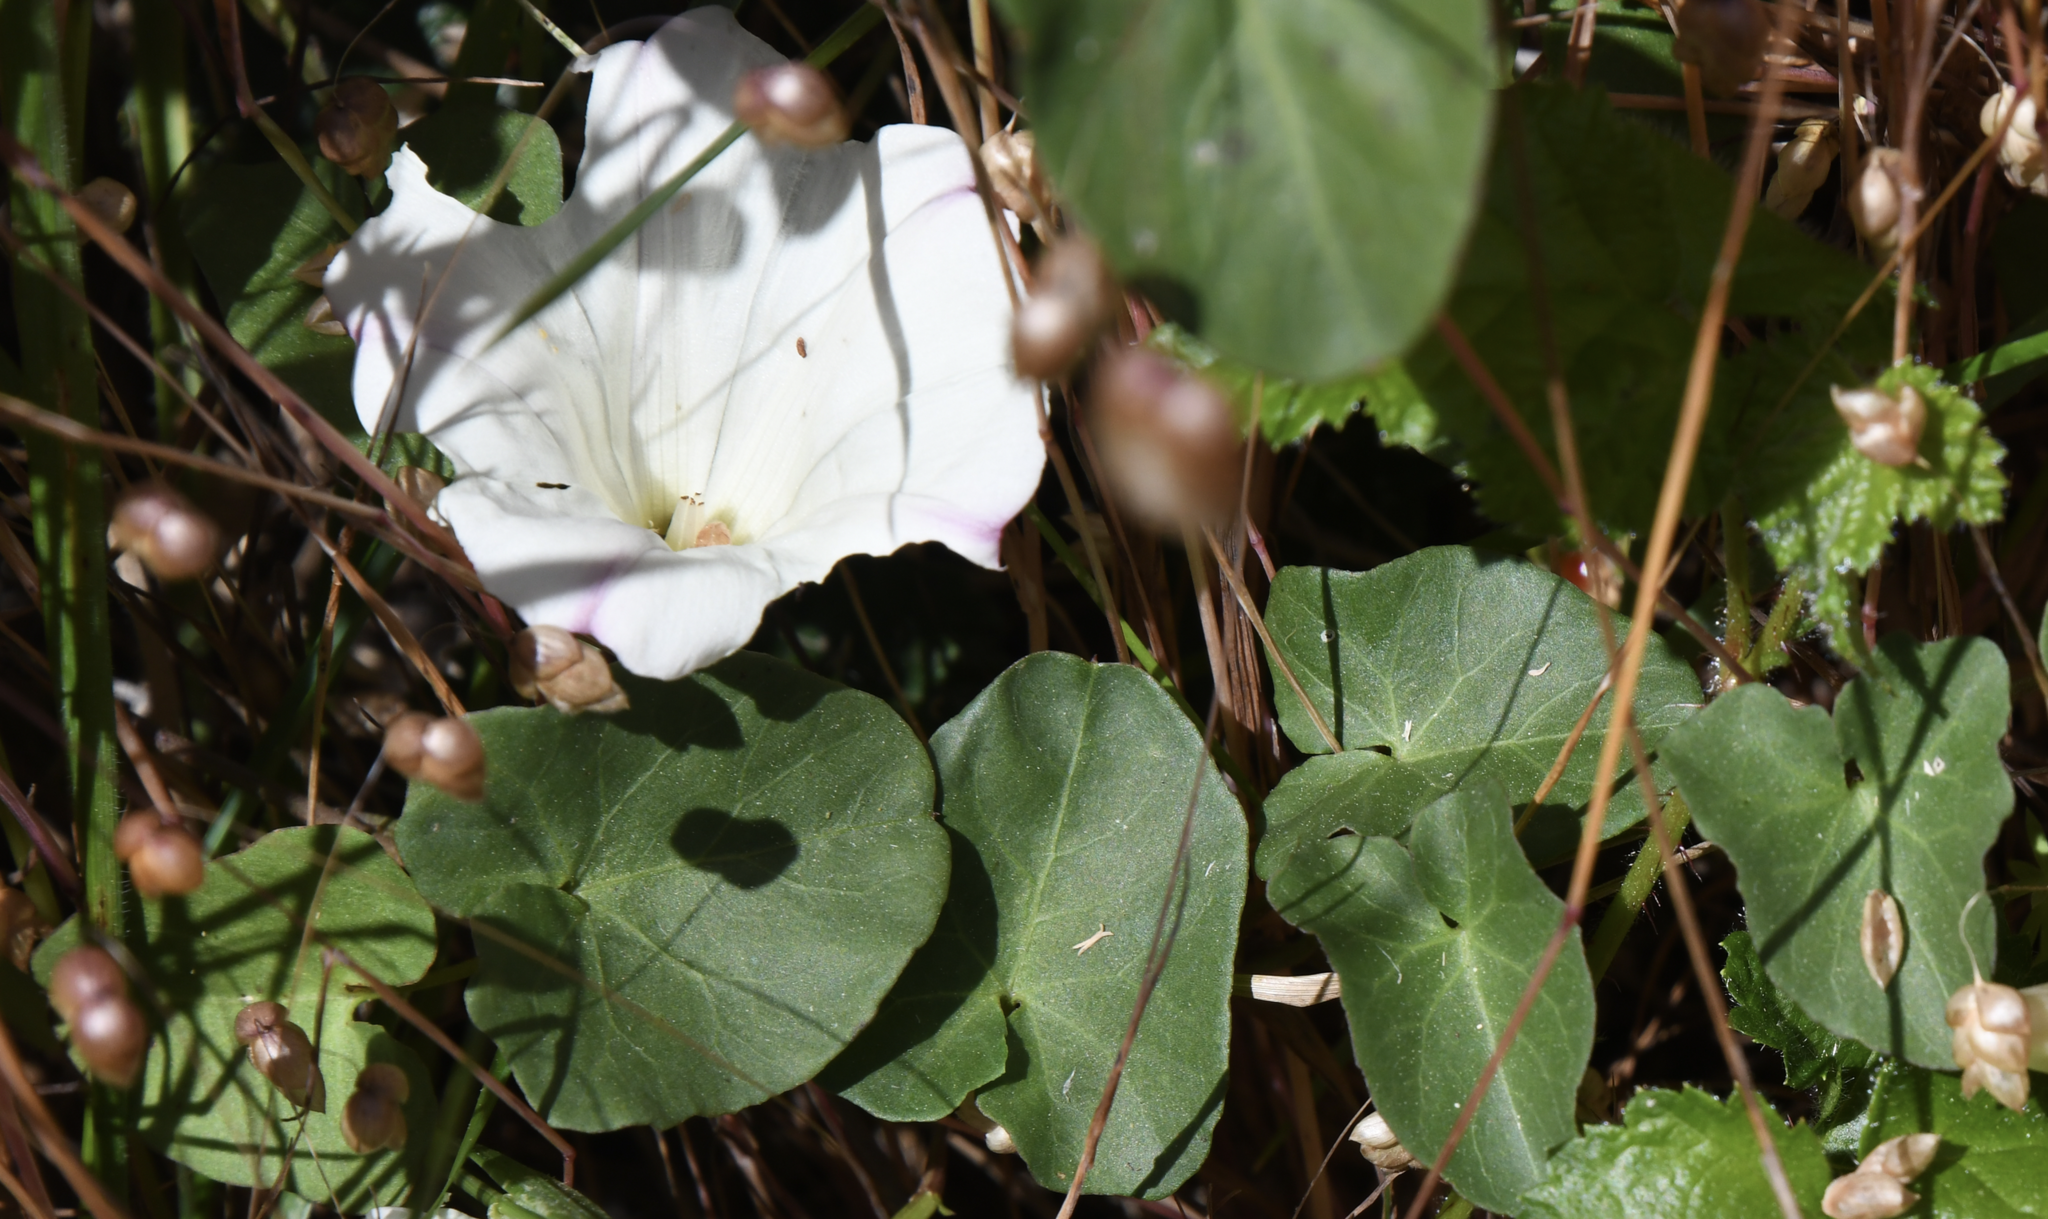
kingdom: Plantae
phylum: Tracheophyta
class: Magnoliopsida
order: Solanales
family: Convolvulaceae
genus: Calystegia
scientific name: Calystegia purpurata
